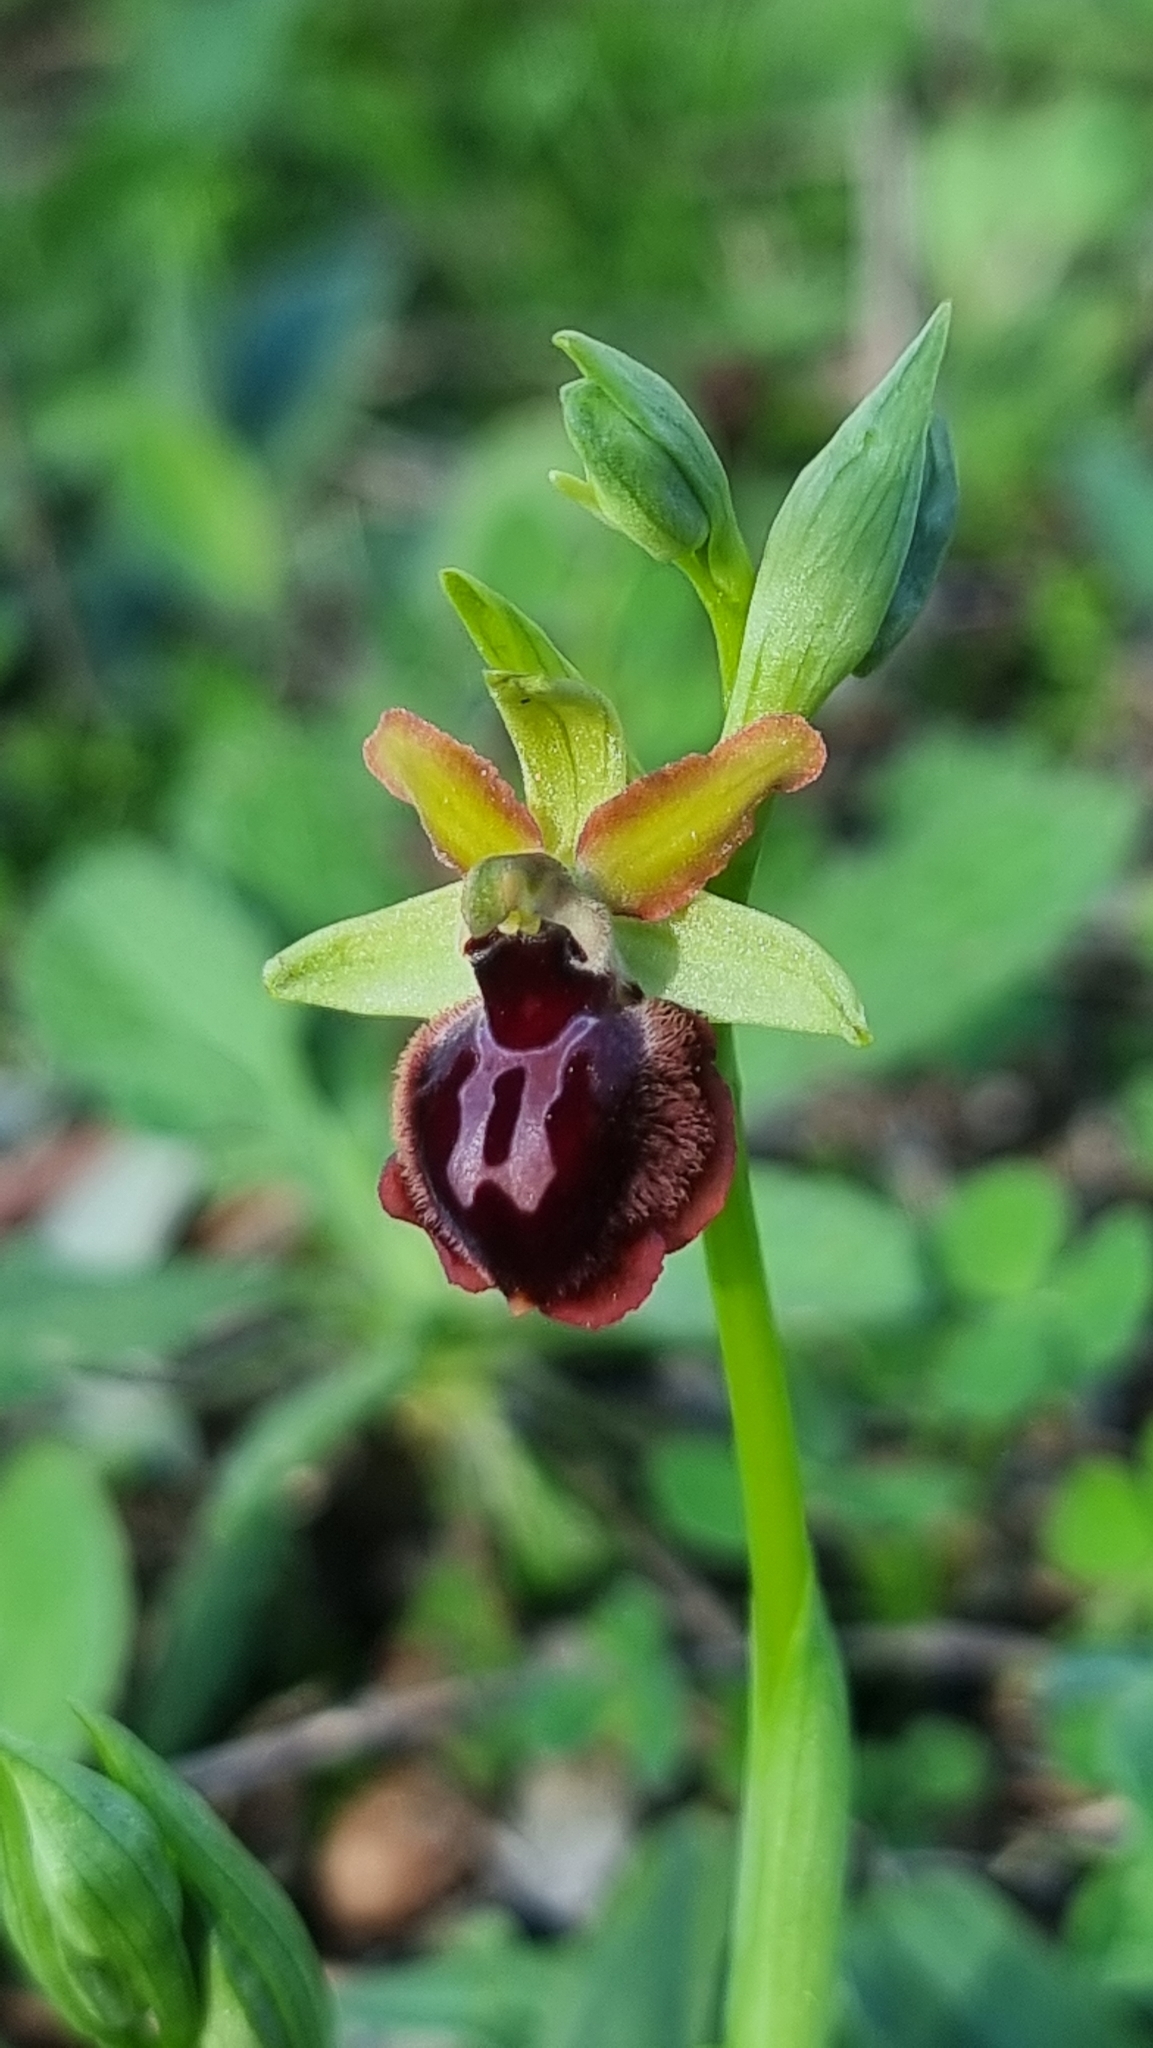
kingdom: Plantae
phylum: Tracheophyta
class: Liliopsida
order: Asparagales
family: Orchidaceae
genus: Ophrys
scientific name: Ophrys sphegodes
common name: Early spider-orchid
